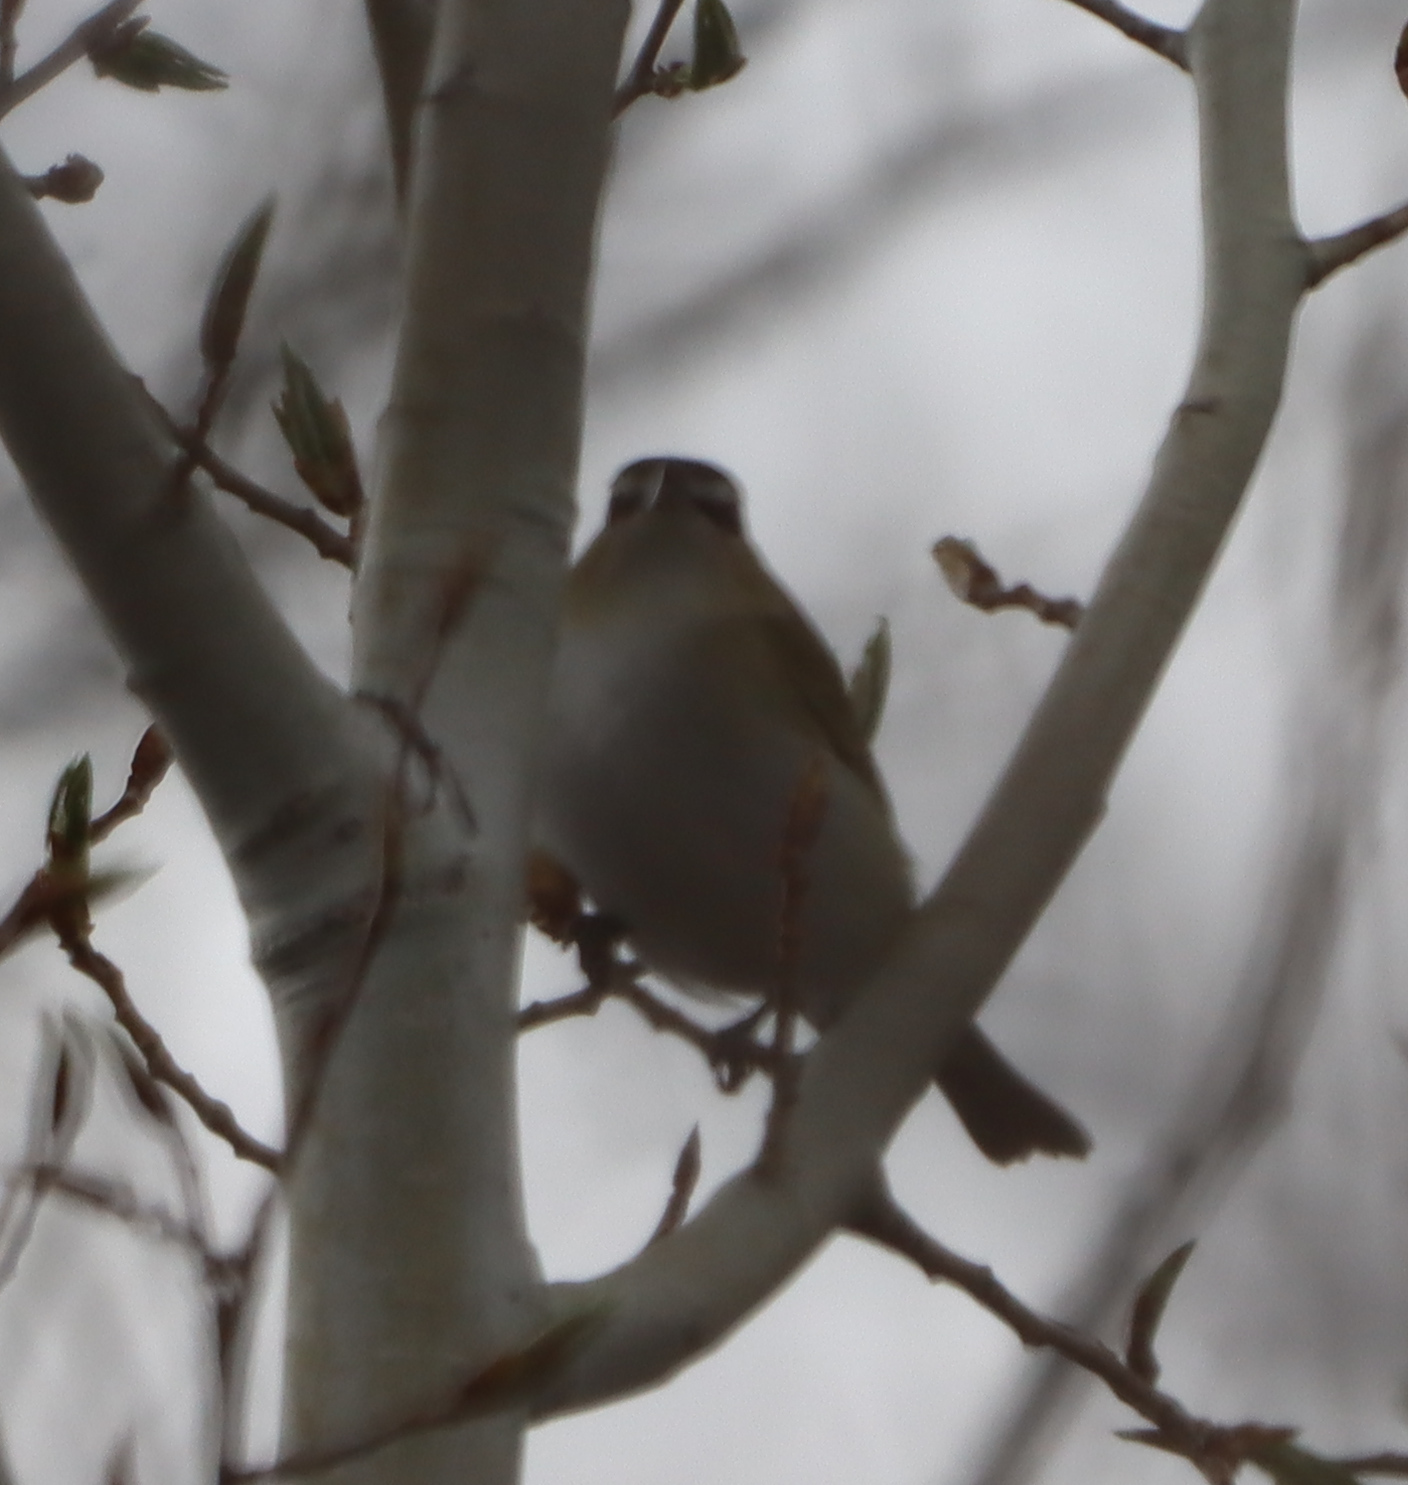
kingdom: Animalia
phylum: Chordata
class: Aves
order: Passeriformes
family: Vireonidae
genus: Vireo
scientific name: Vireo olivaceus
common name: Red-eyed vireo
